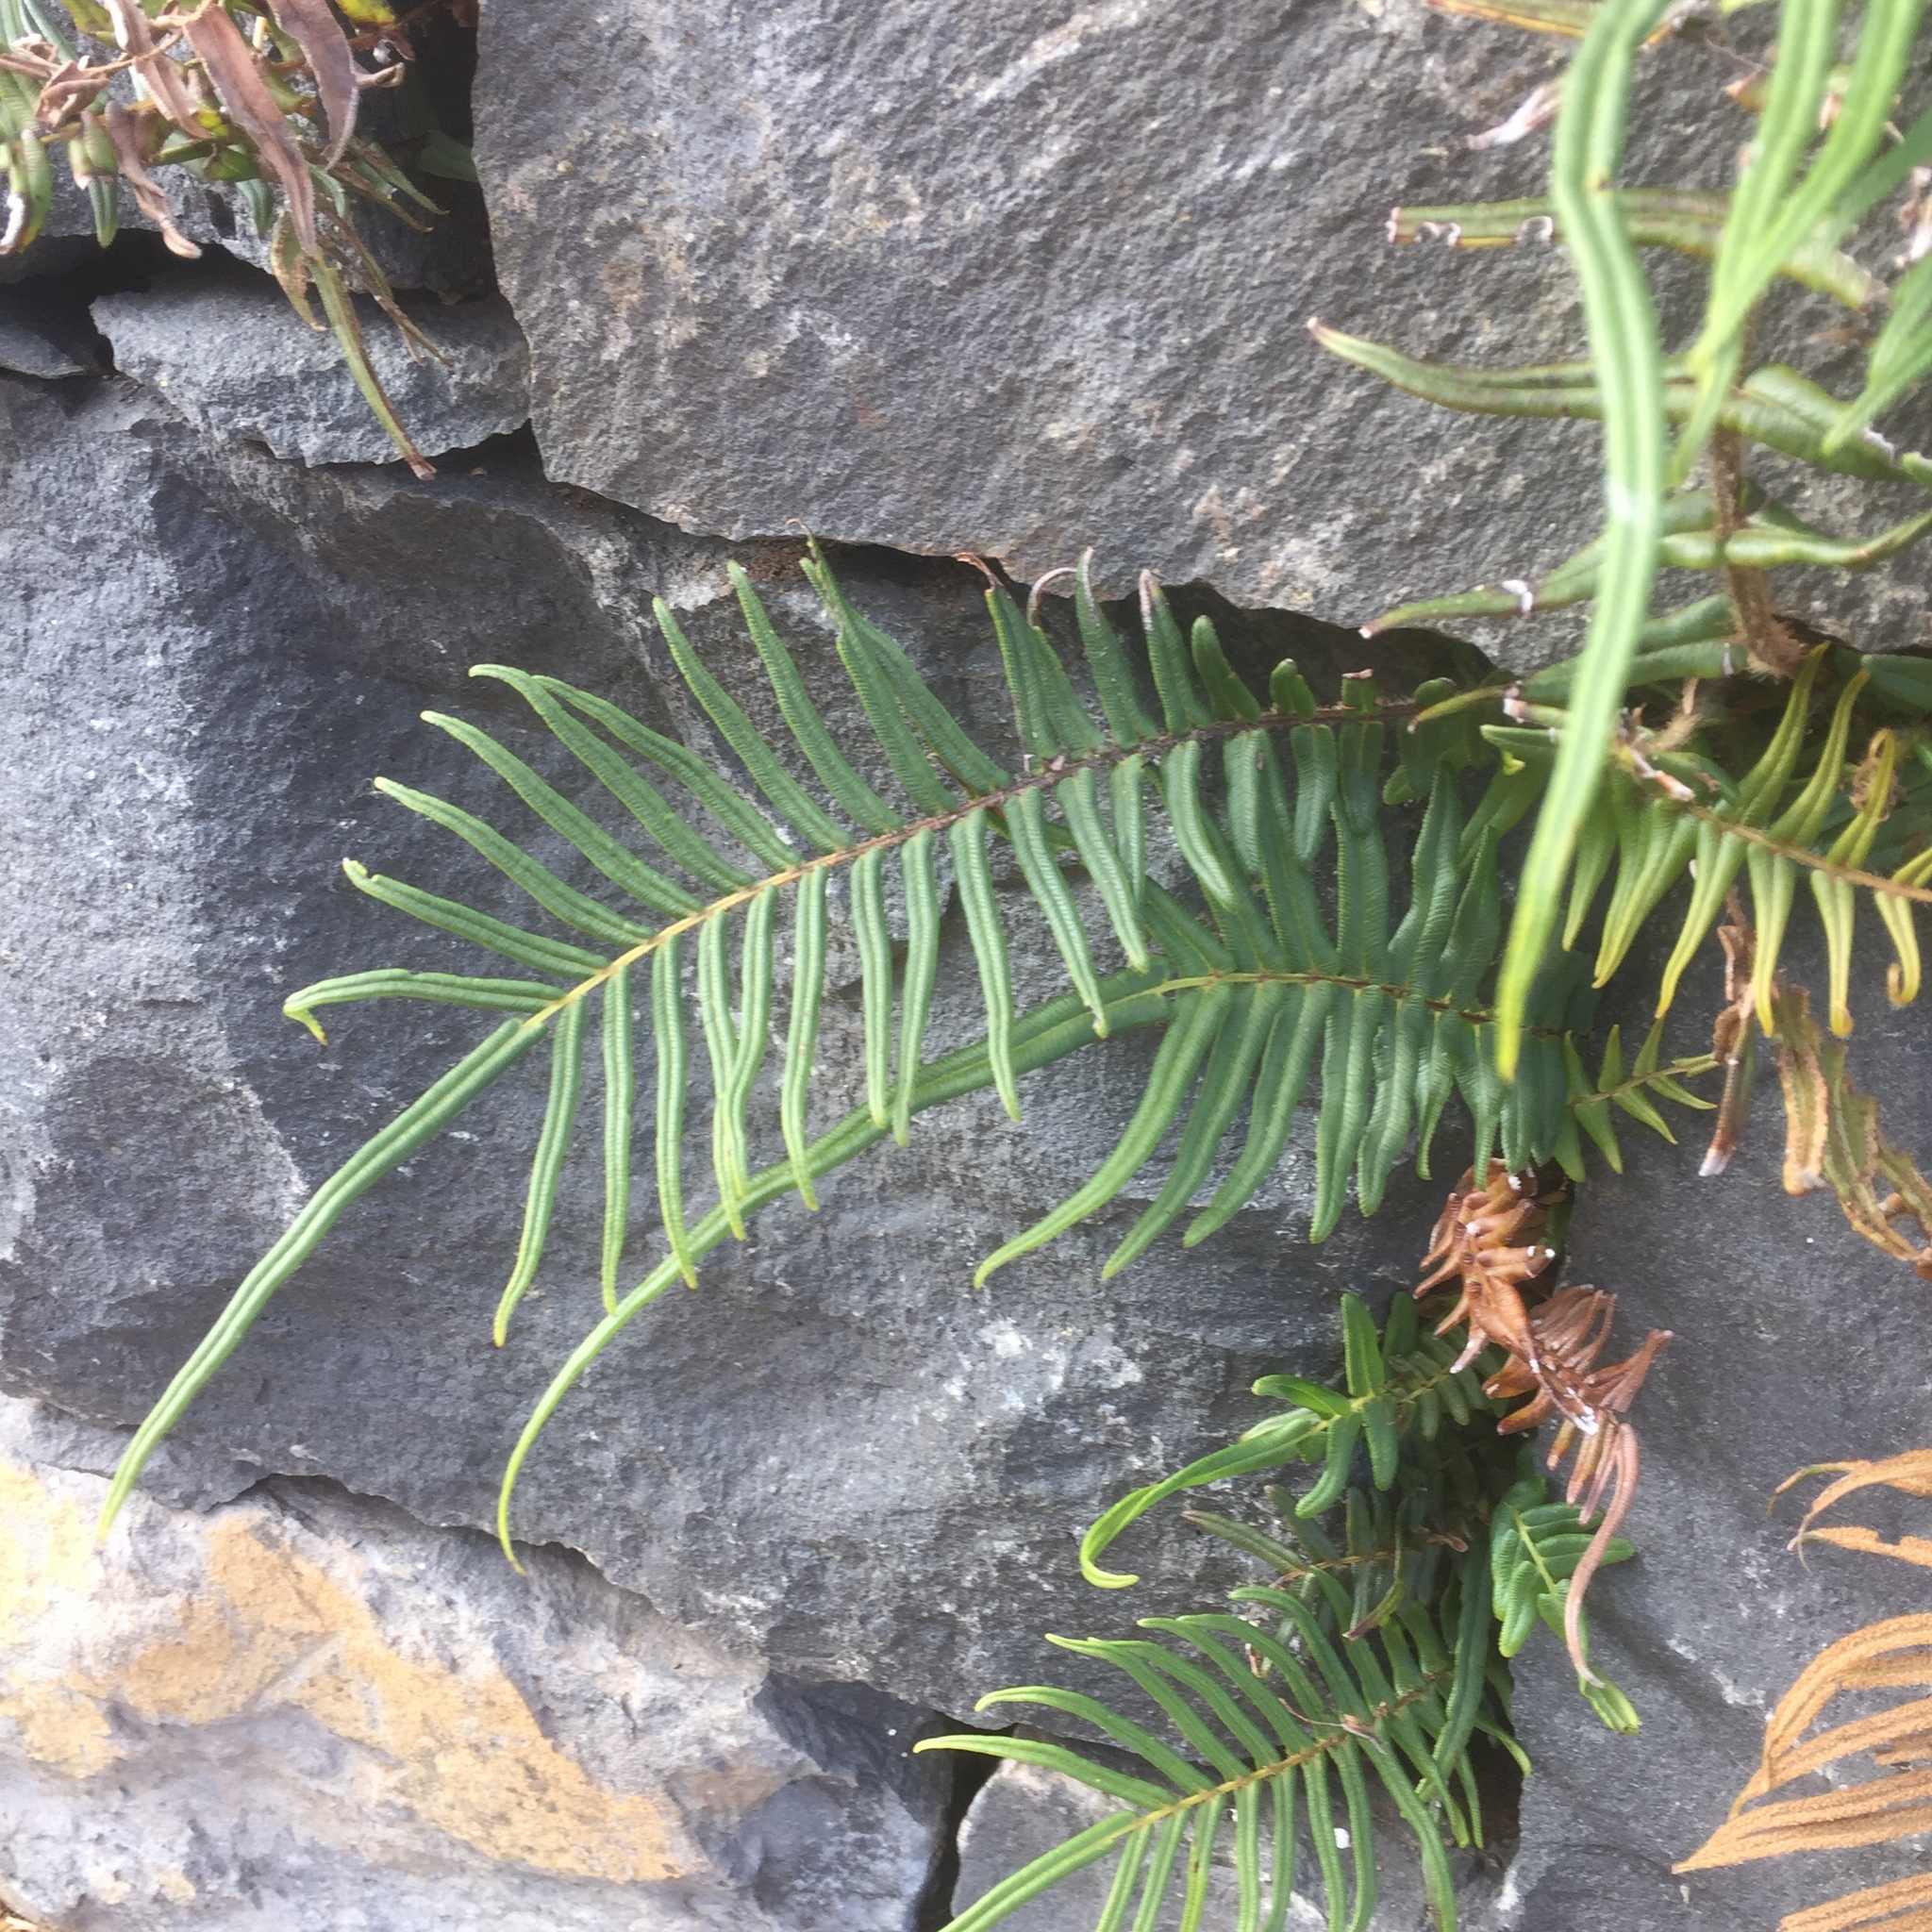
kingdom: Plantae
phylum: Tracheophyta
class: Polypodiopsida
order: Polypodiales
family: Pteridaceae
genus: Pteris
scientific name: Pteris vittata
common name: Ladder brake
